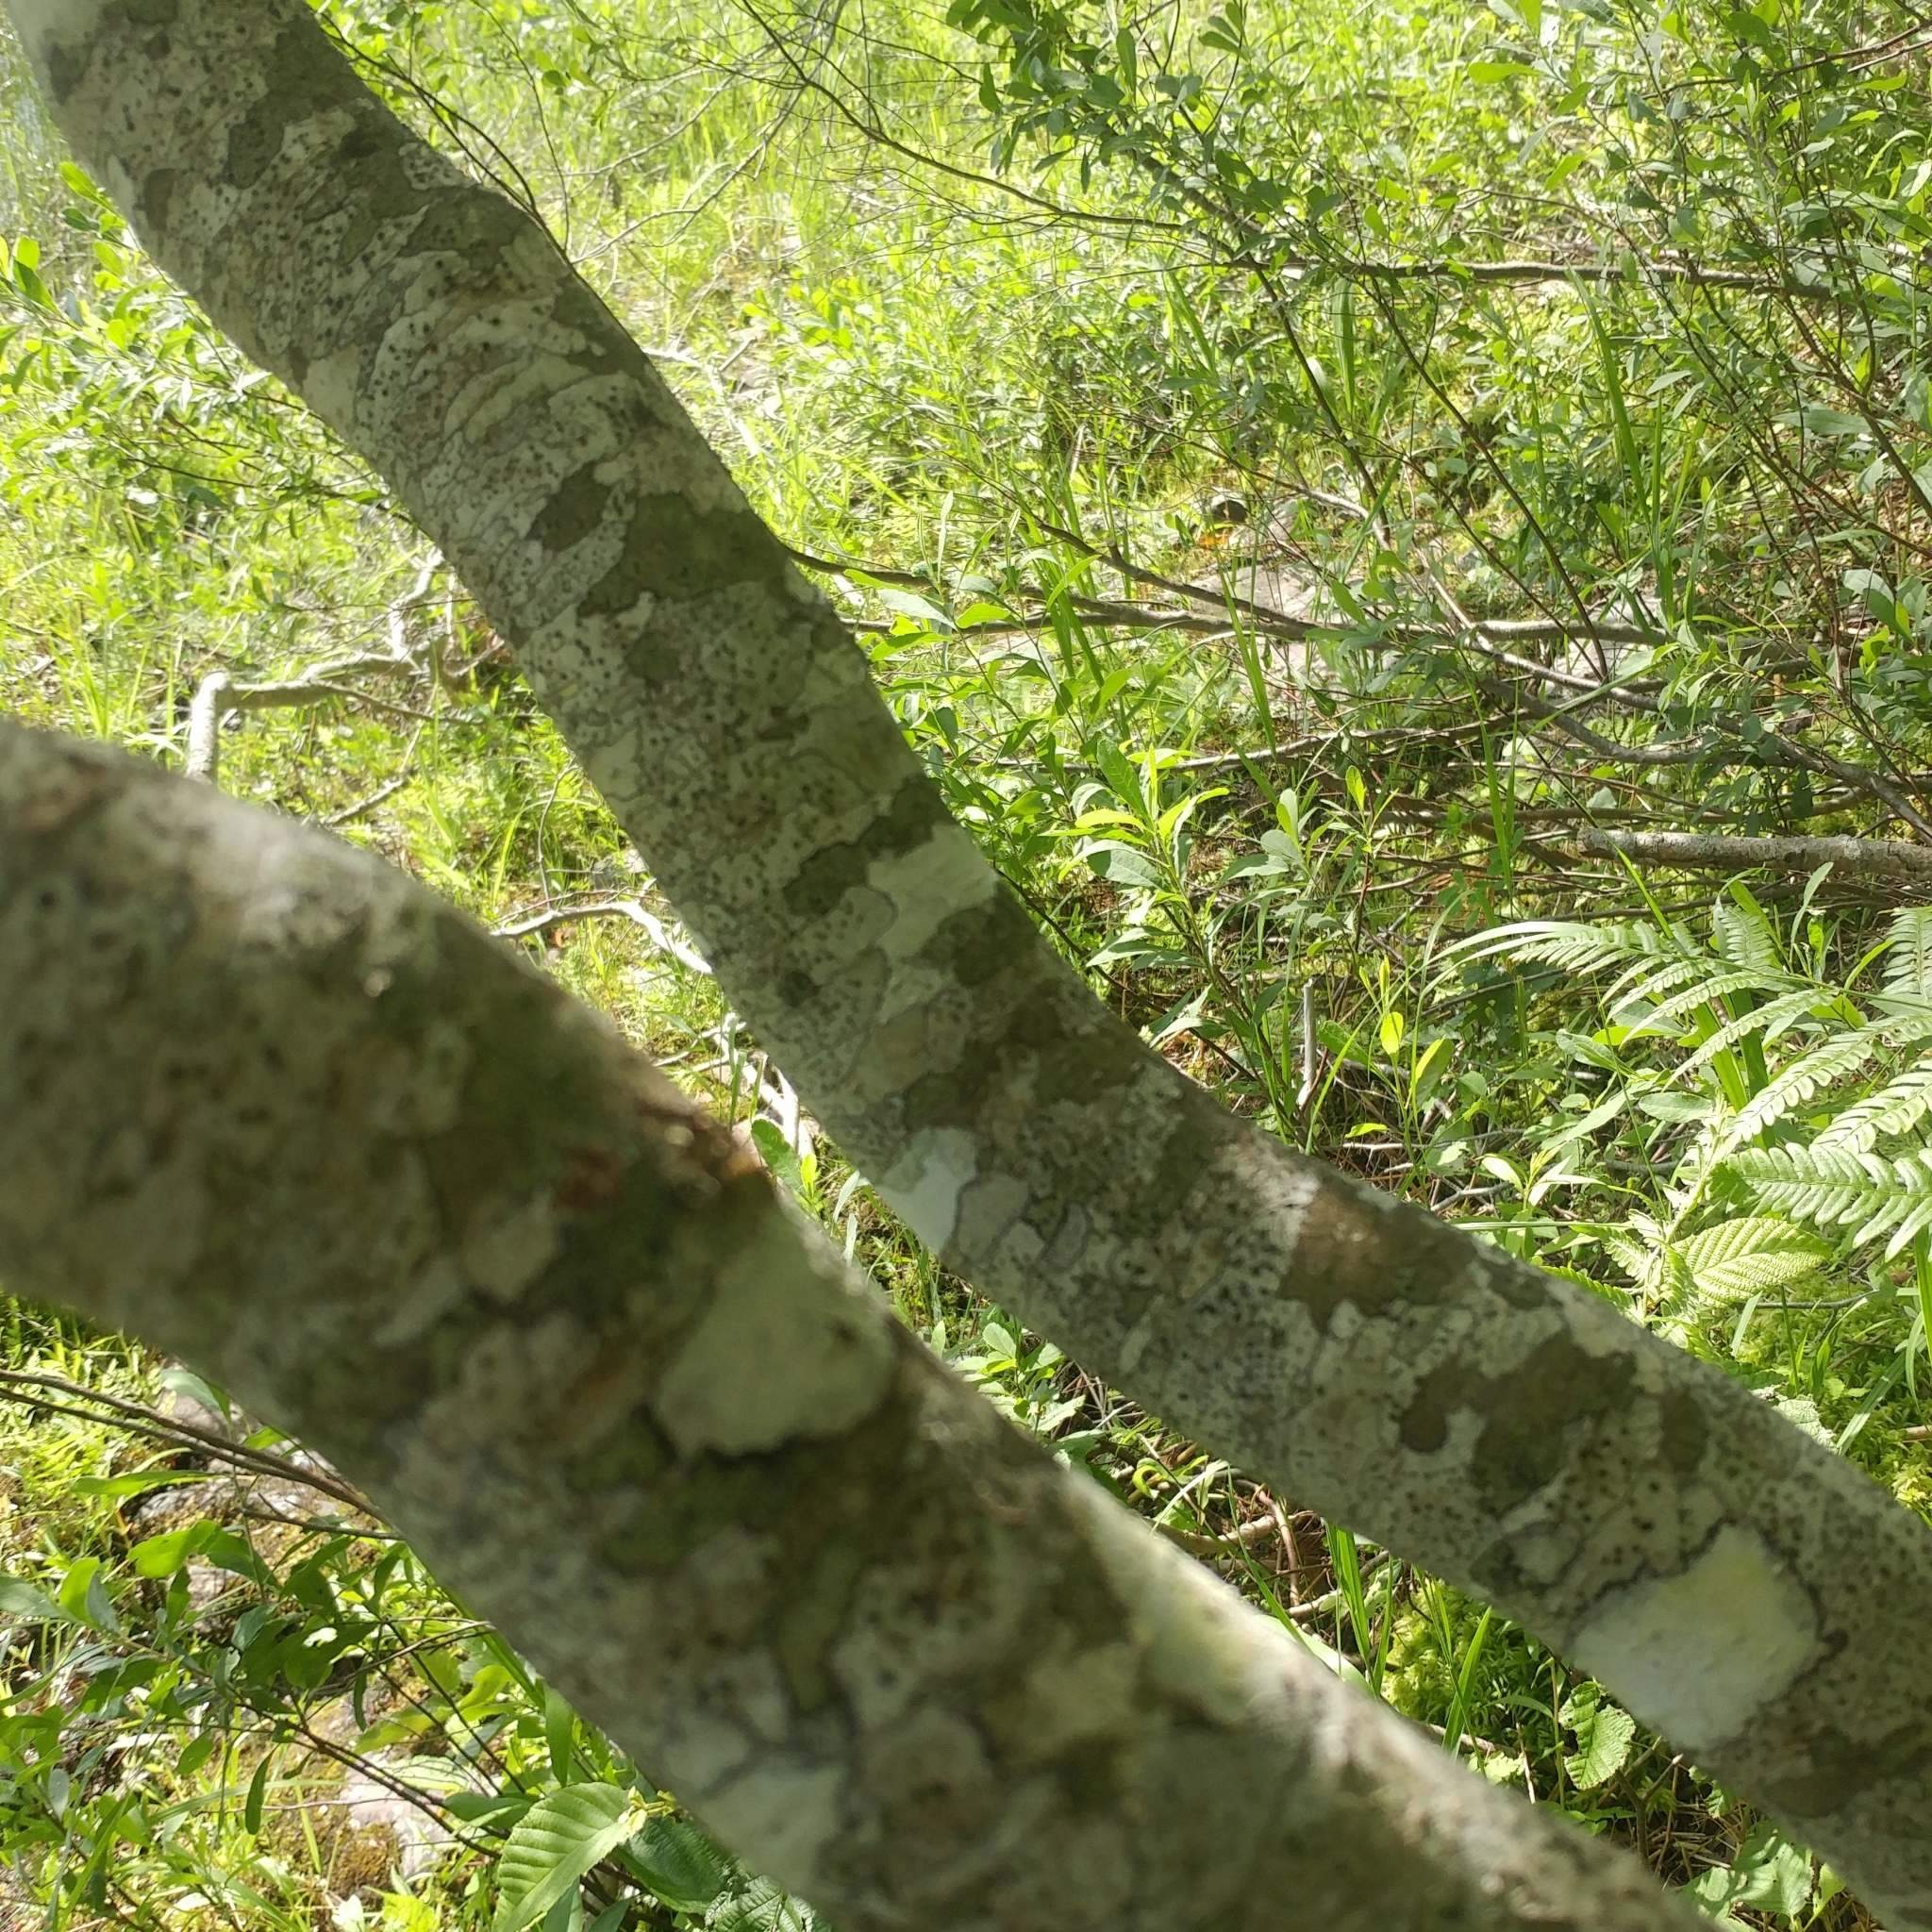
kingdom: Plantae
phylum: Tracheophyta
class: Magnoliopsida
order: Aquifoliales
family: Aquifoliaceae
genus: Ilex
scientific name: Ilex verticillata
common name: Virginia winterberry
